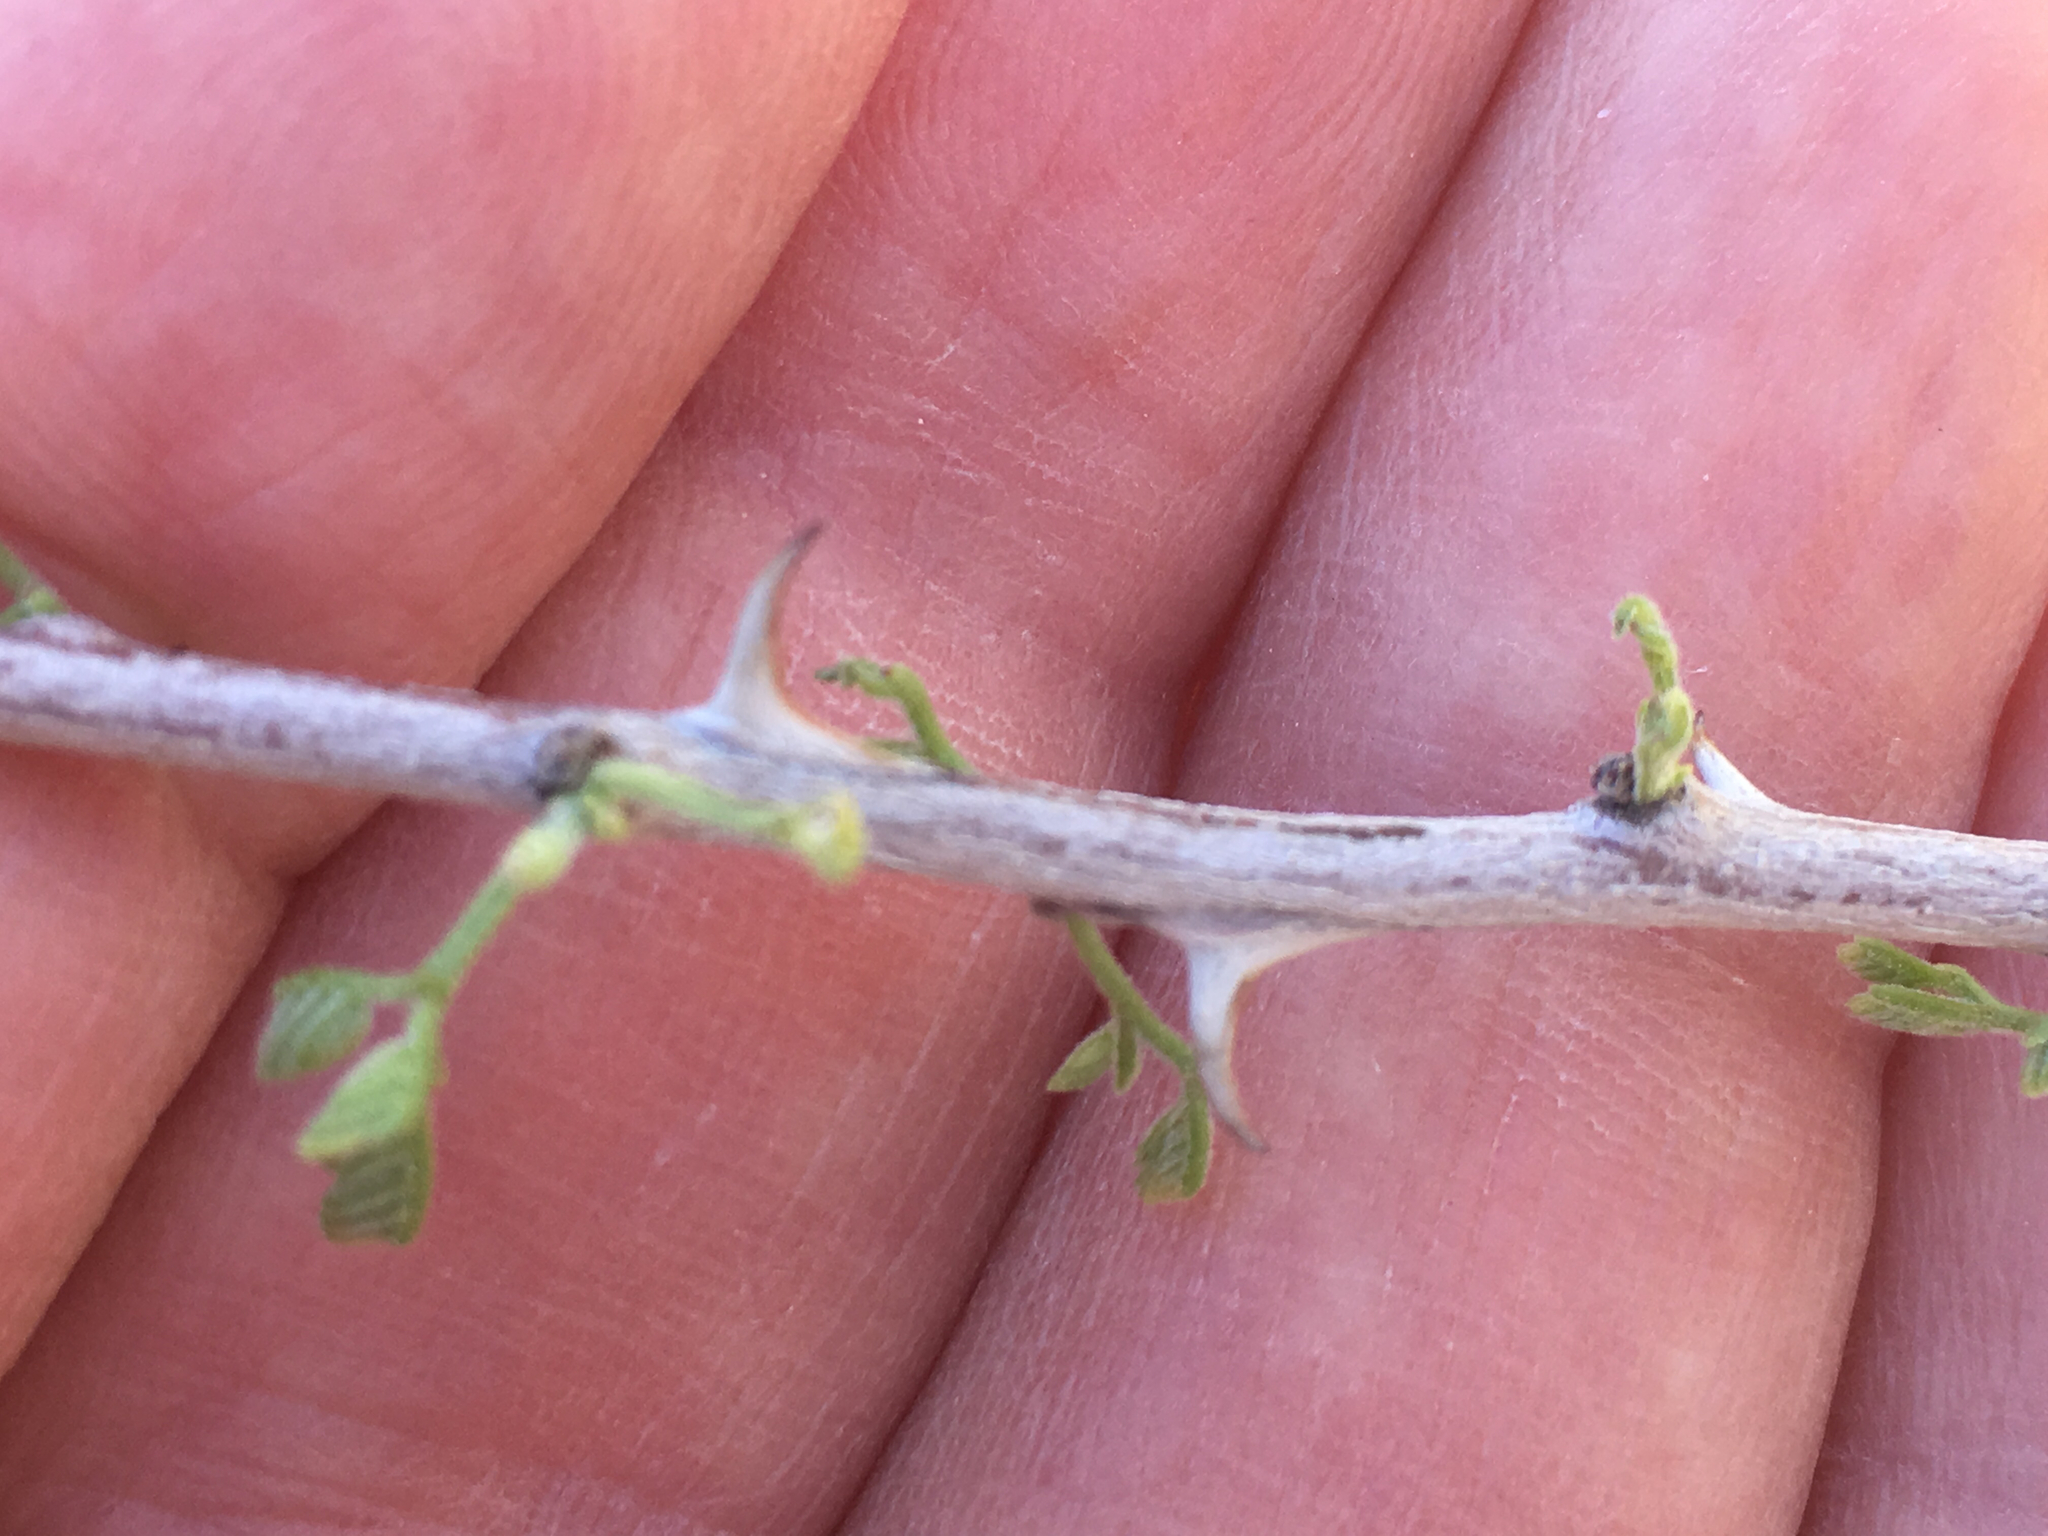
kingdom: Plantae
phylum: Tracheophyta
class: Magnoliopsida
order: Fabales
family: Fabaceae
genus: Senegalia
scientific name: Senegalia greggii
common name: Texas-mimosa
